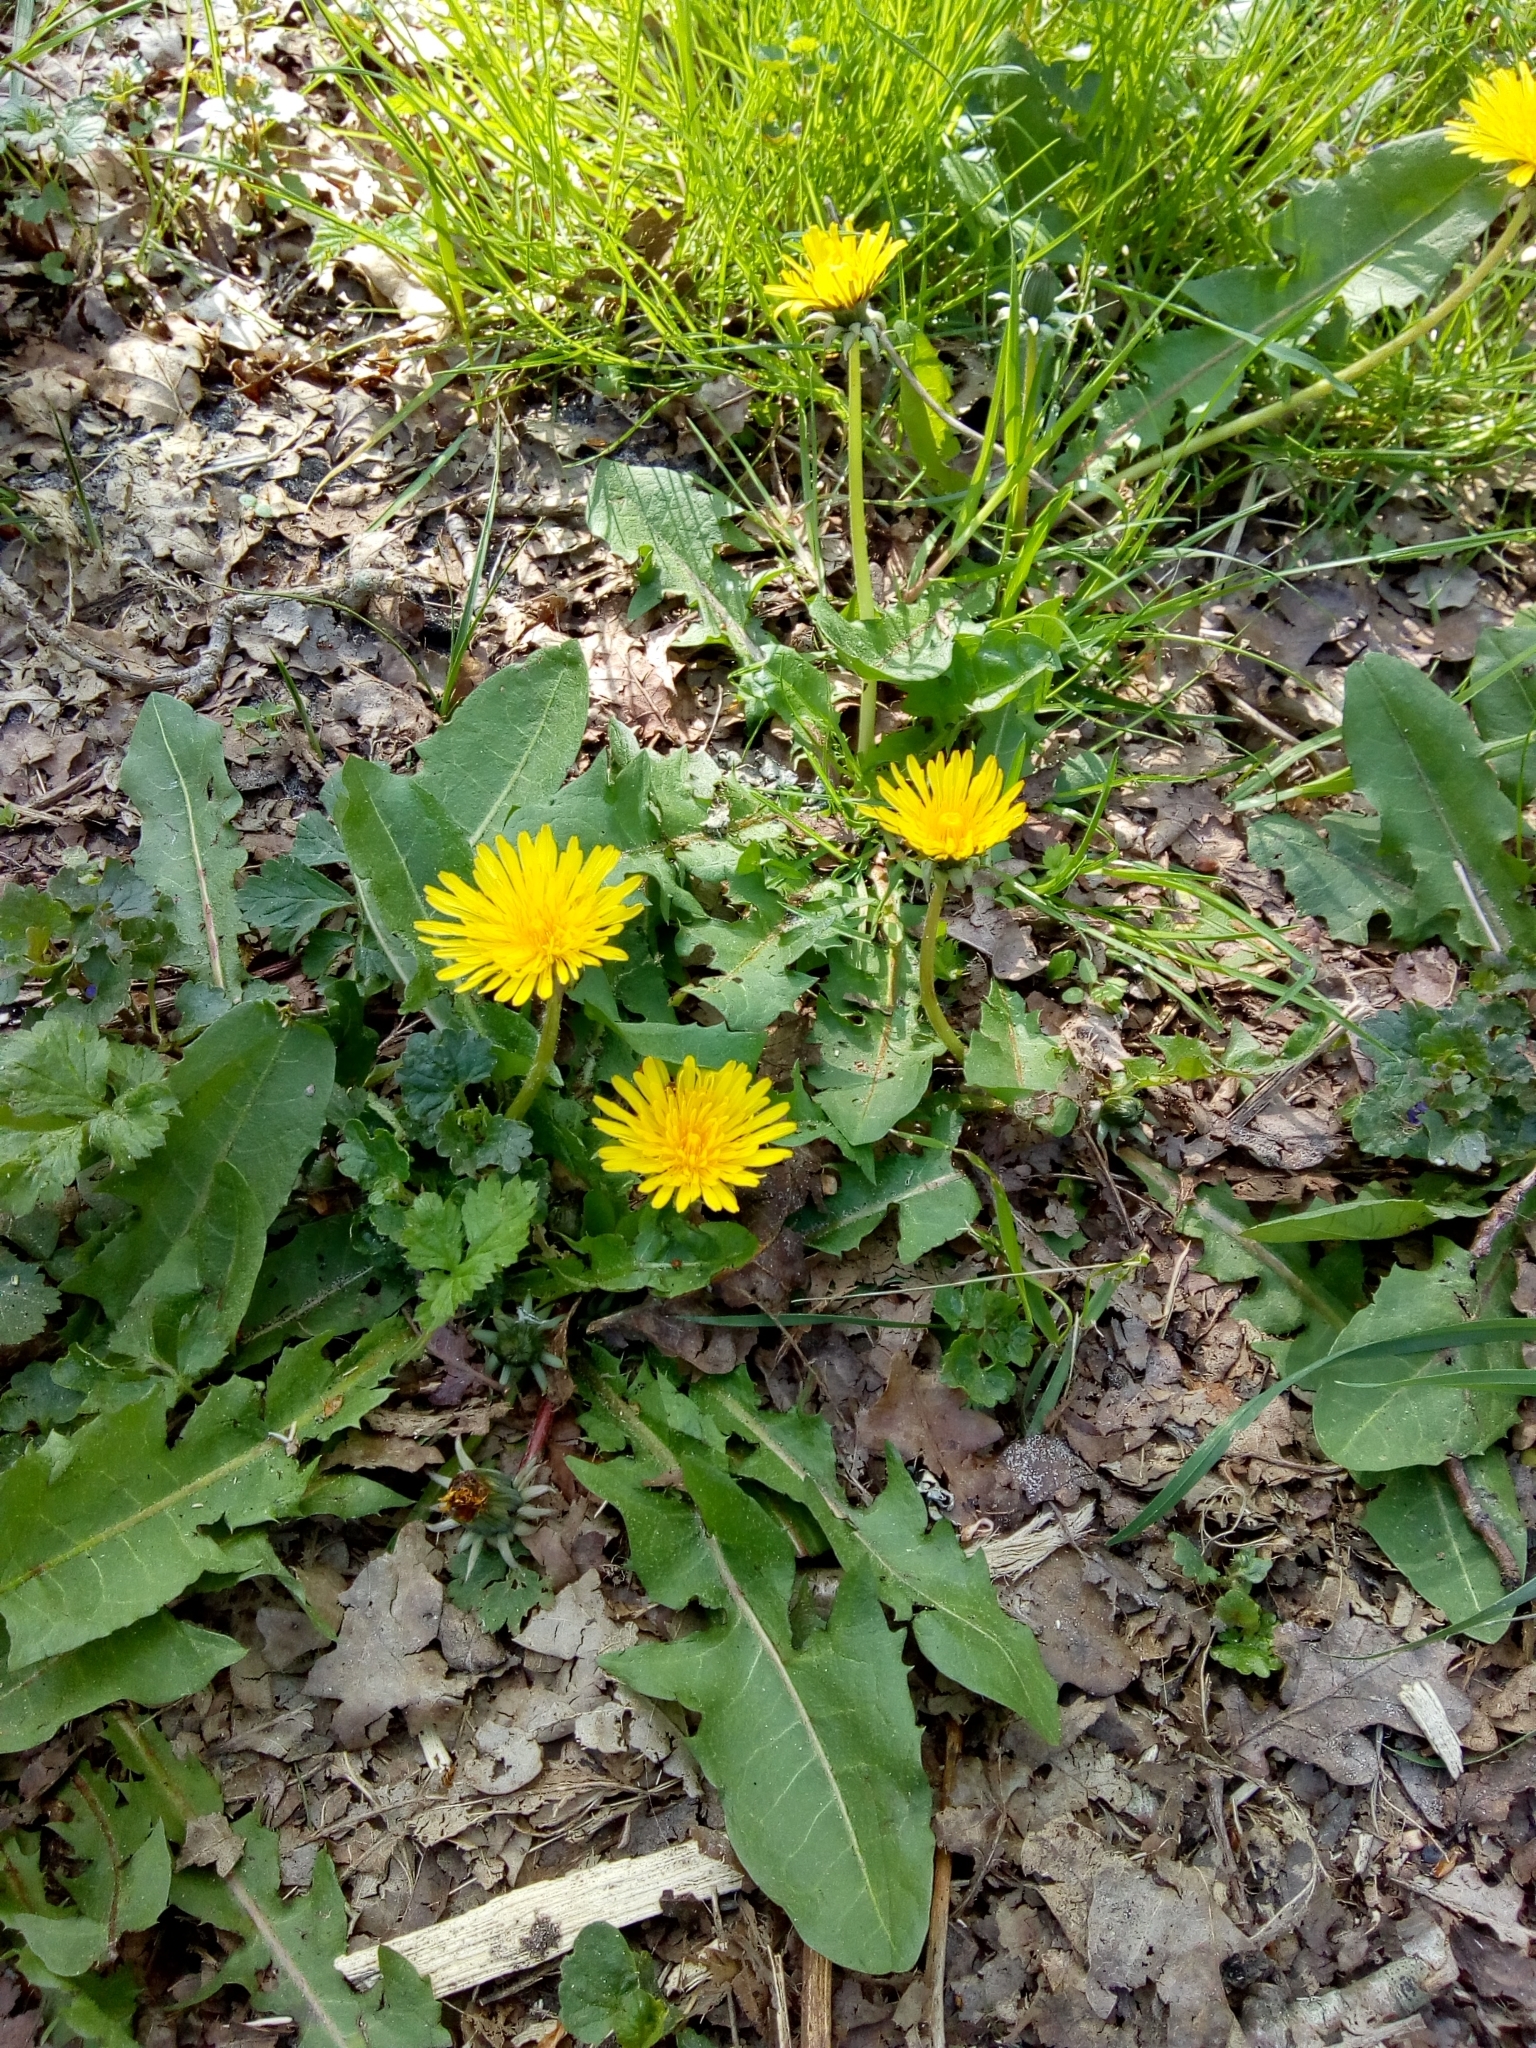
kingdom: Plantae
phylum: Tracheophyta
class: Magnoliopsida
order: Asterales
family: Asteraceae
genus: Taraxacum
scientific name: Taraxacum
